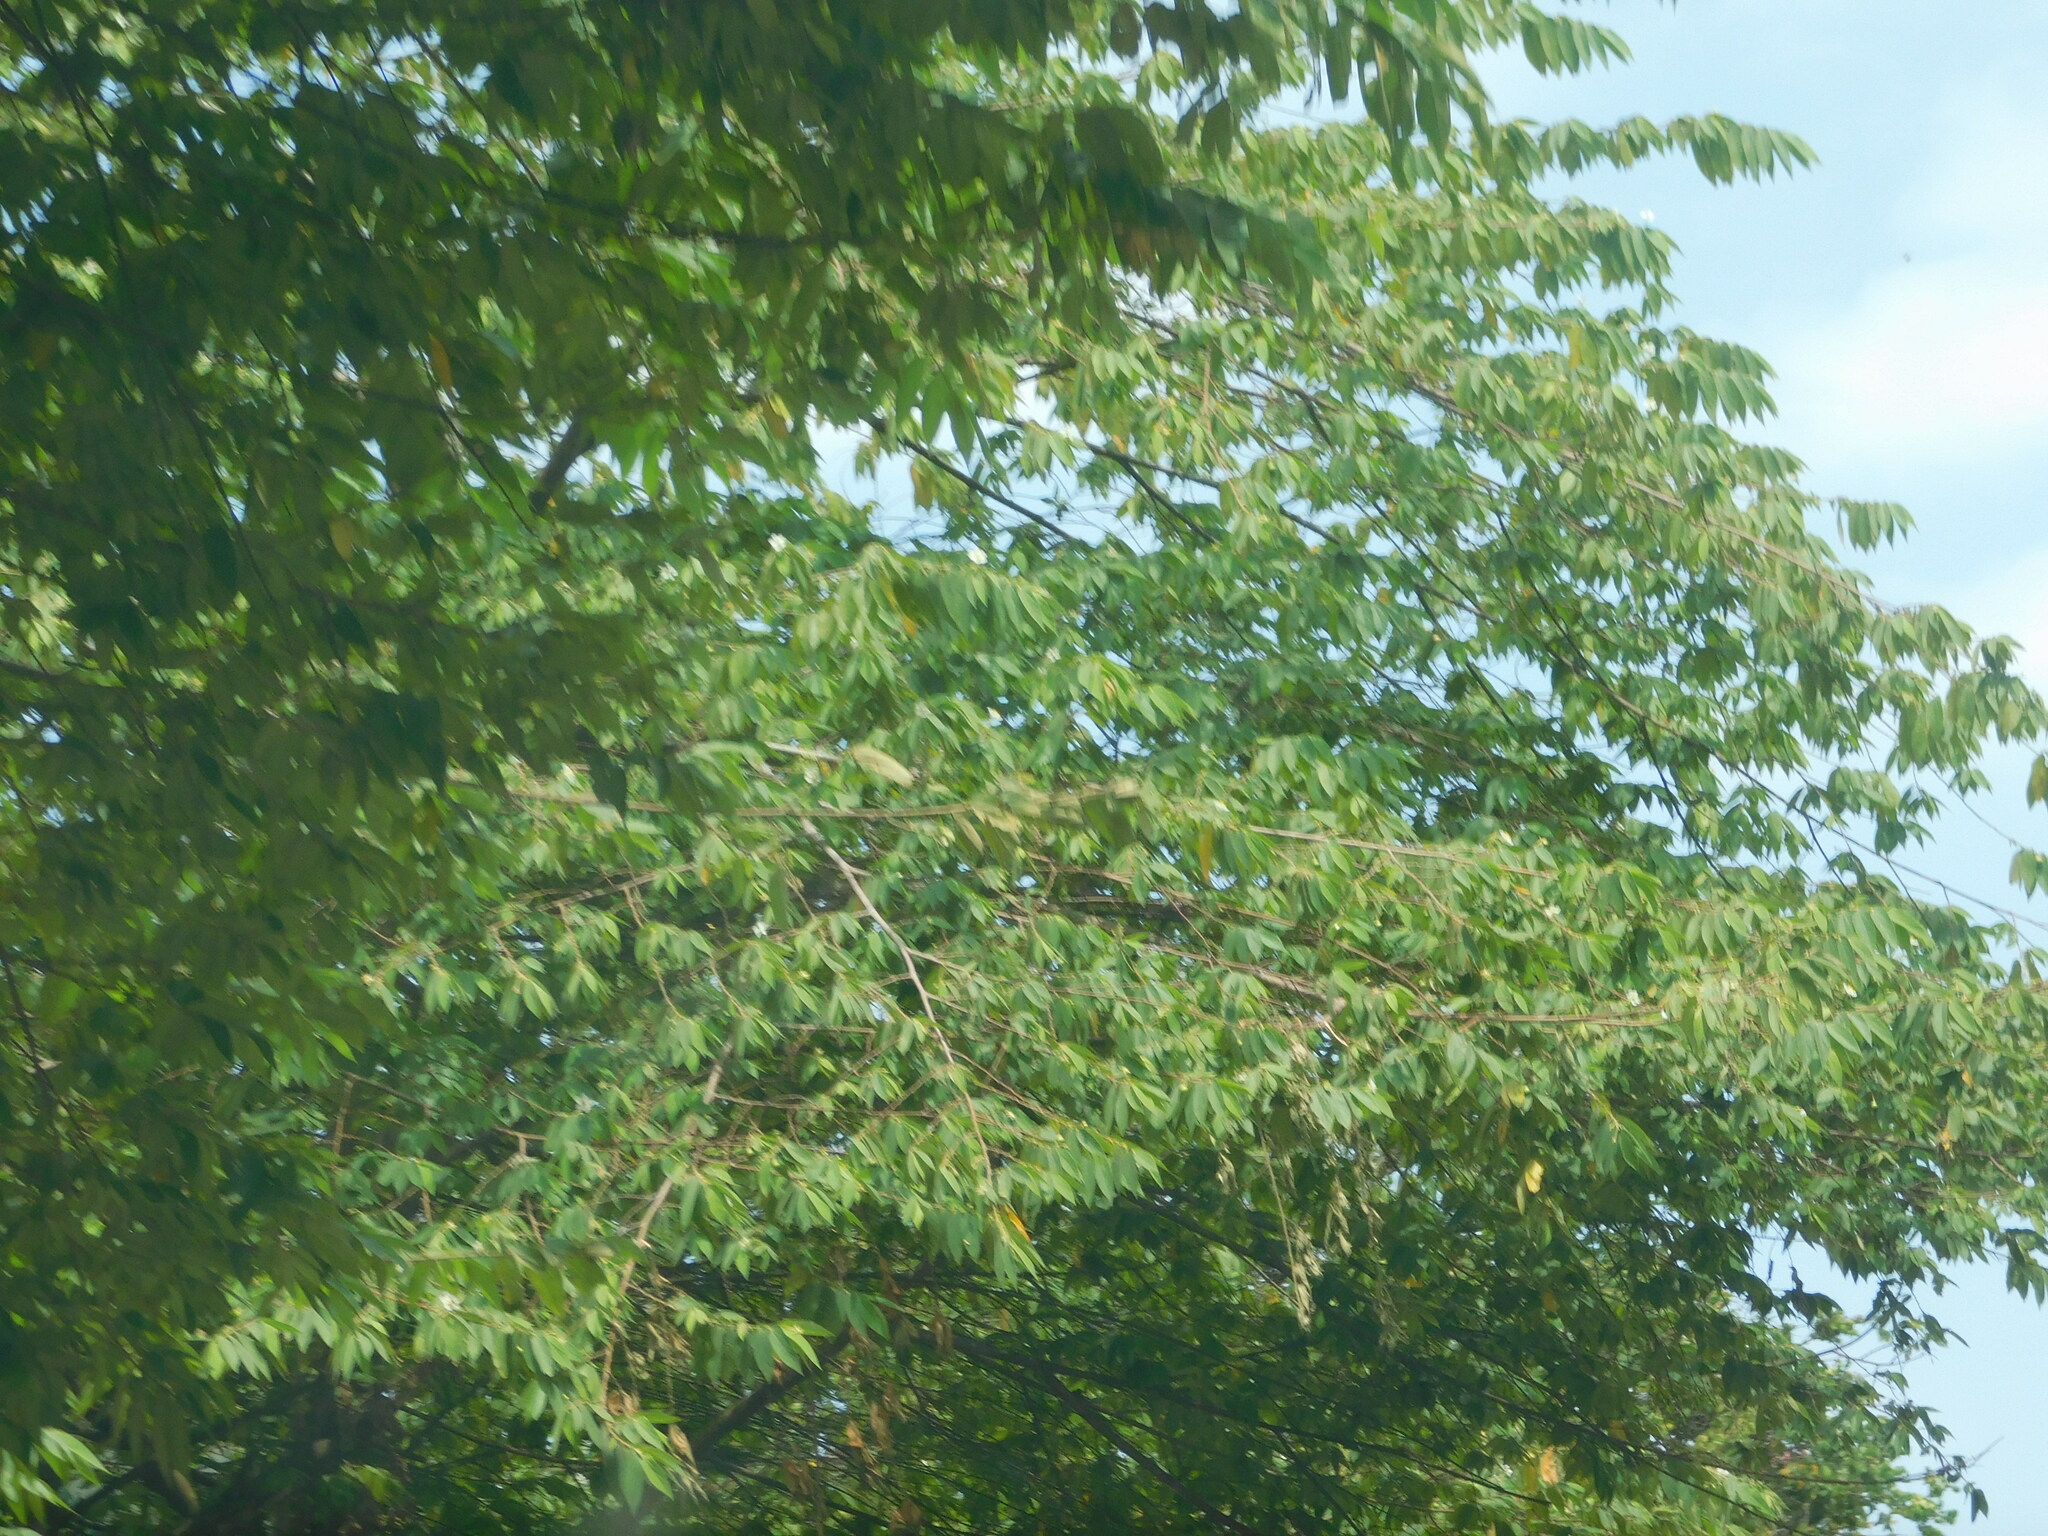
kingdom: Plantae
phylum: Tracheophyta
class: Magnoliopsida
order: Malvales
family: Muntingiaceae
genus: Muntingia
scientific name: Muntingia calabura
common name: Strawberrytree
